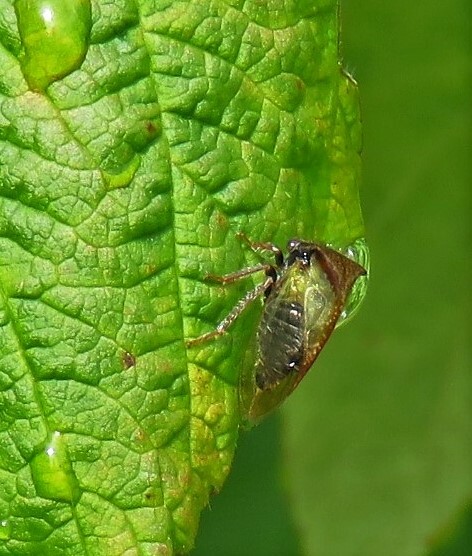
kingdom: Animalia
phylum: Arthropoda
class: Insecta
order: Hemiptera
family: Membracidae
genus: Stictocephala
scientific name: Stictocephala basalis
